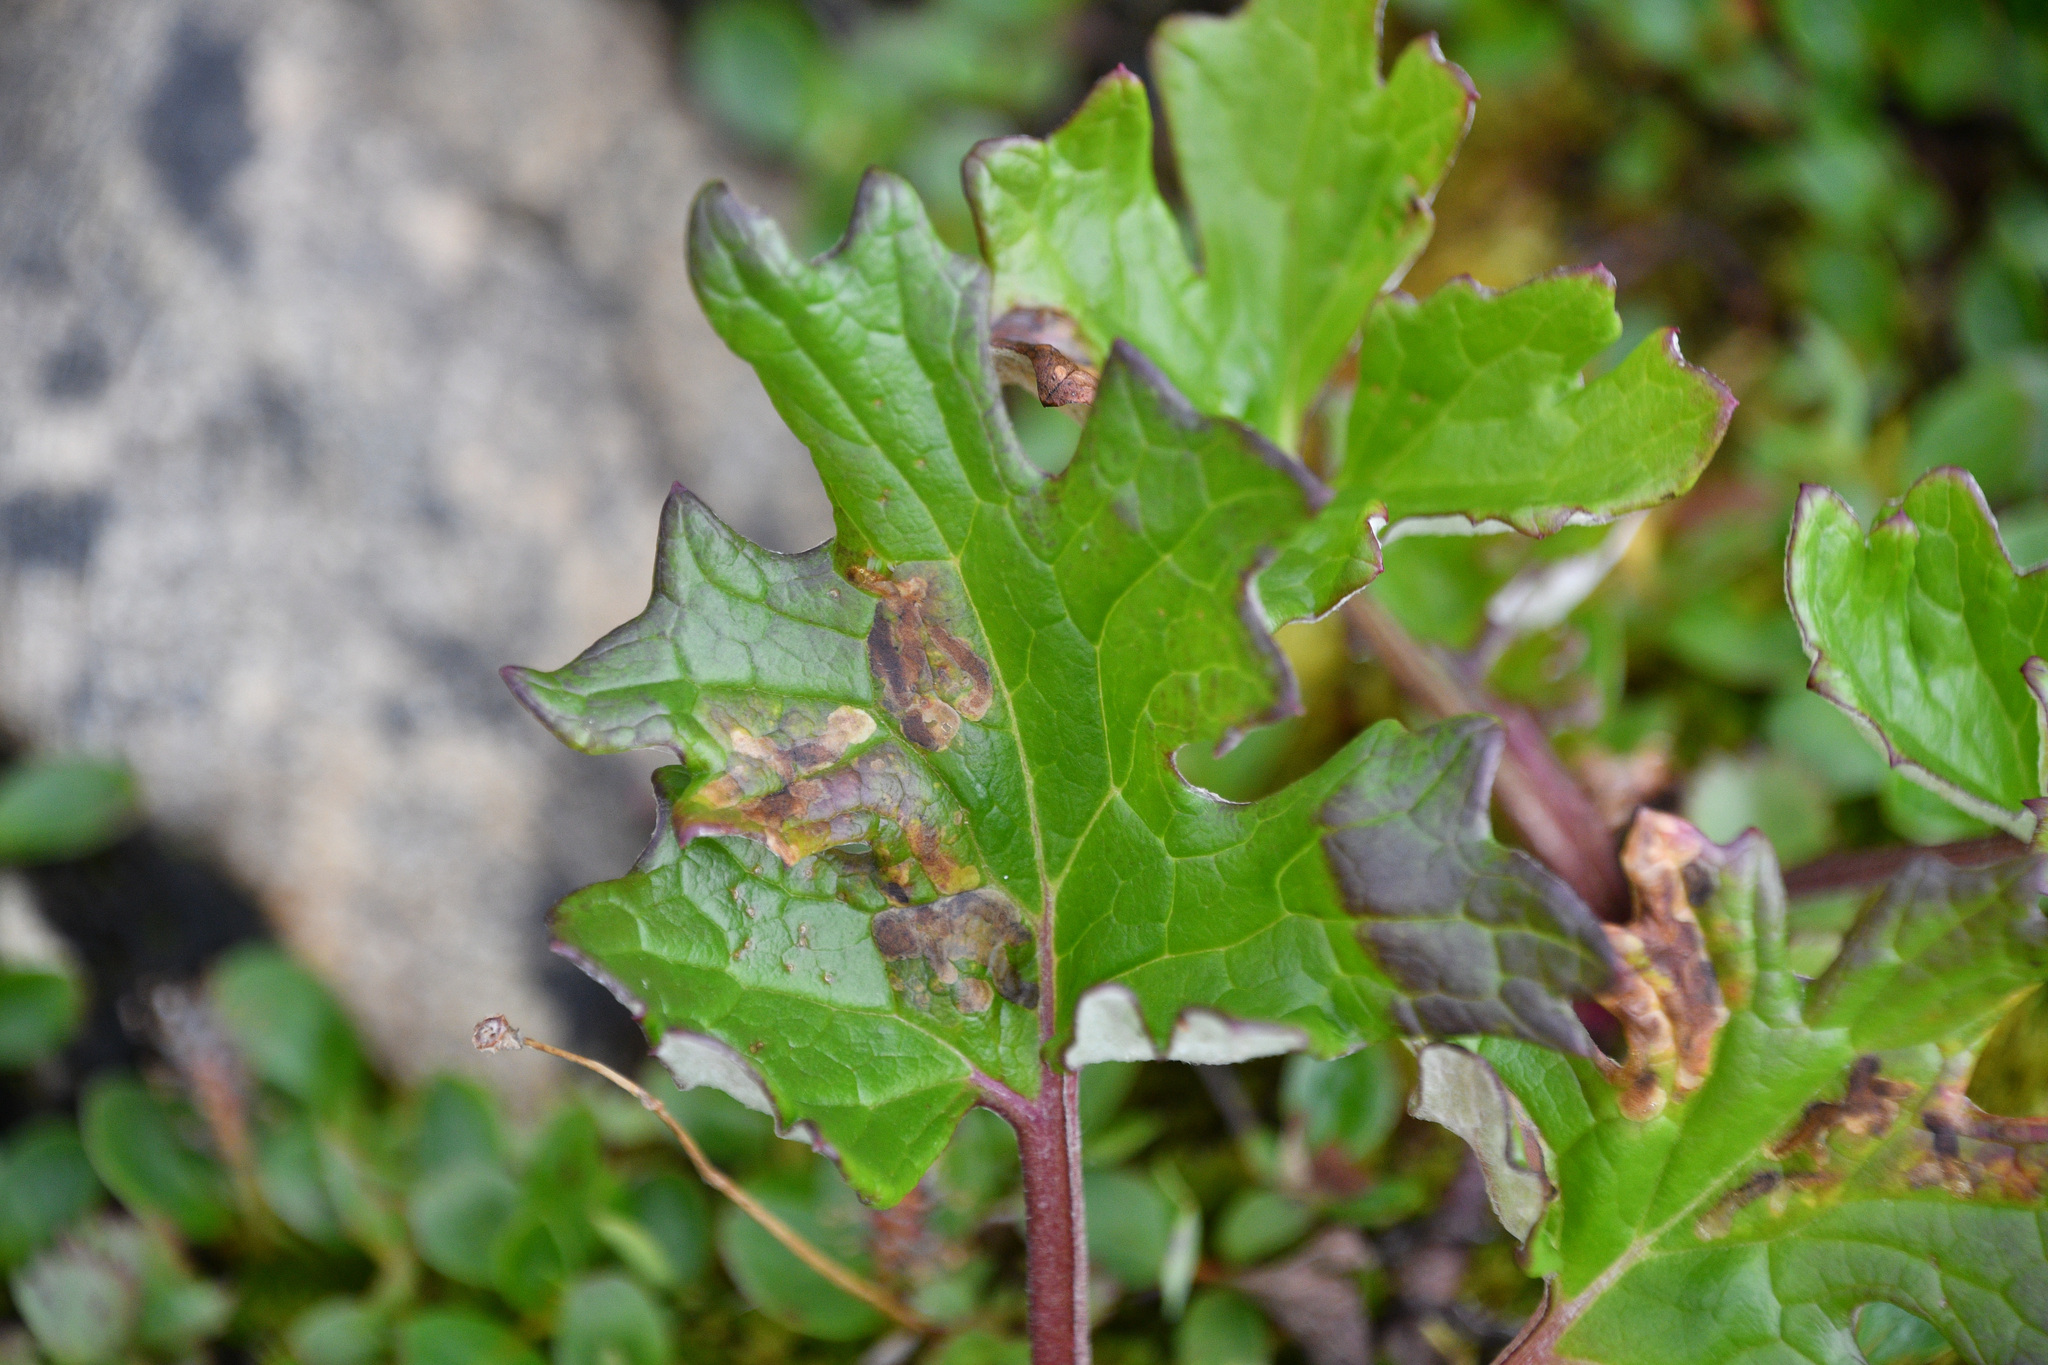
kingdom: Plantae
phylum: Tracheophyta
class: Magnoliopsida
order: Asterales
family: Asteraceae
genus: Petasites
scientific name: Petasites frigidus
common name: Arctic butterbur
